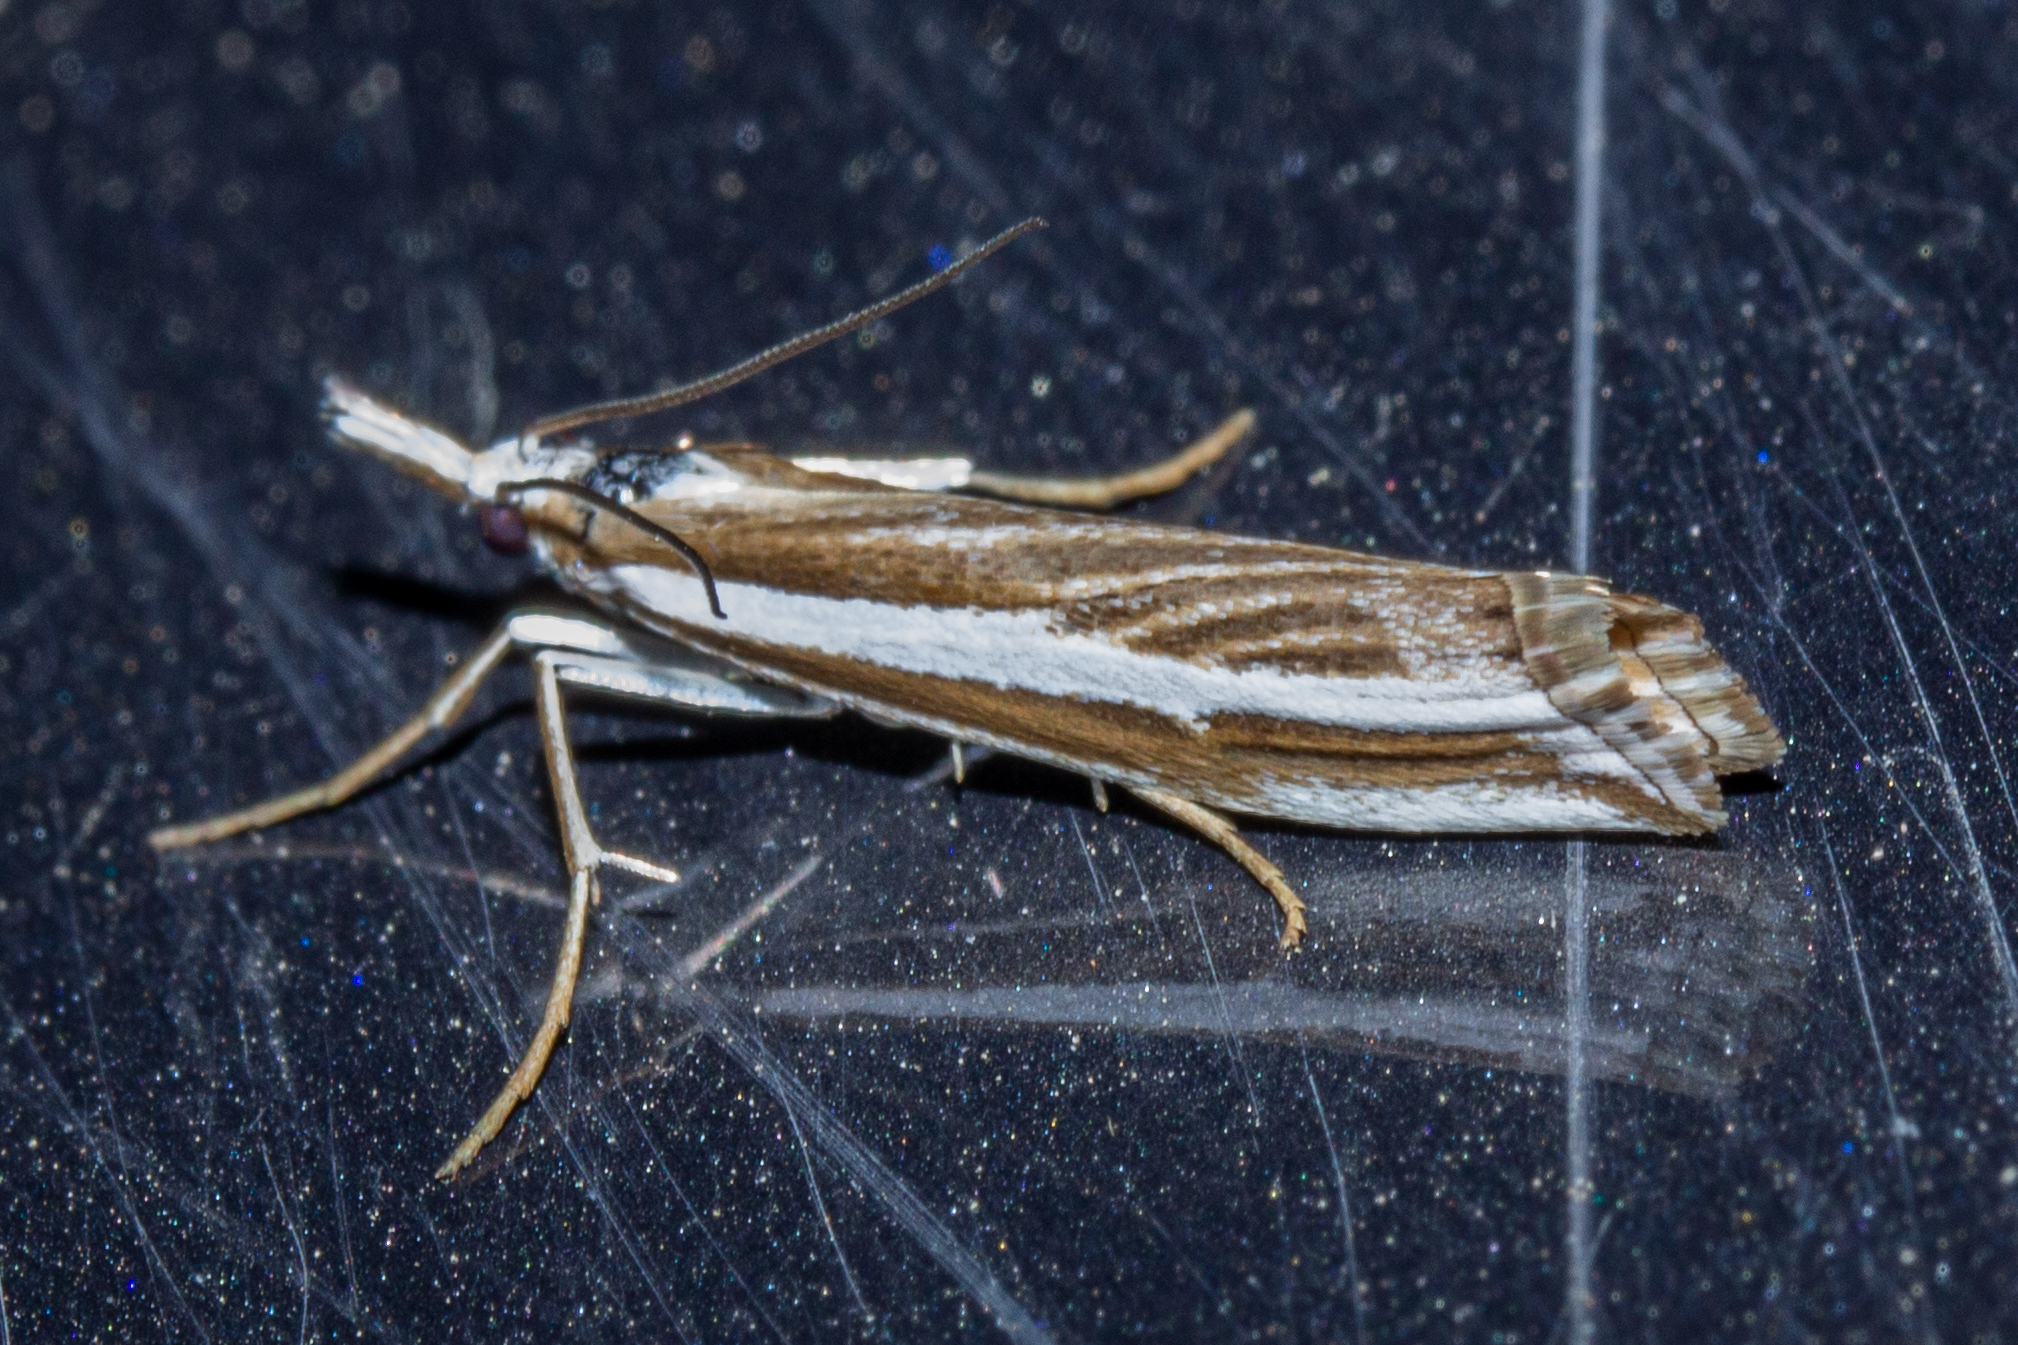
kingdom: Animalia
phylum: Arthropoda
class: Insecta
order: Lepidoptera
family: Crambidae
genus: Orocrambus
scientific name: Orocrambus vittellus
